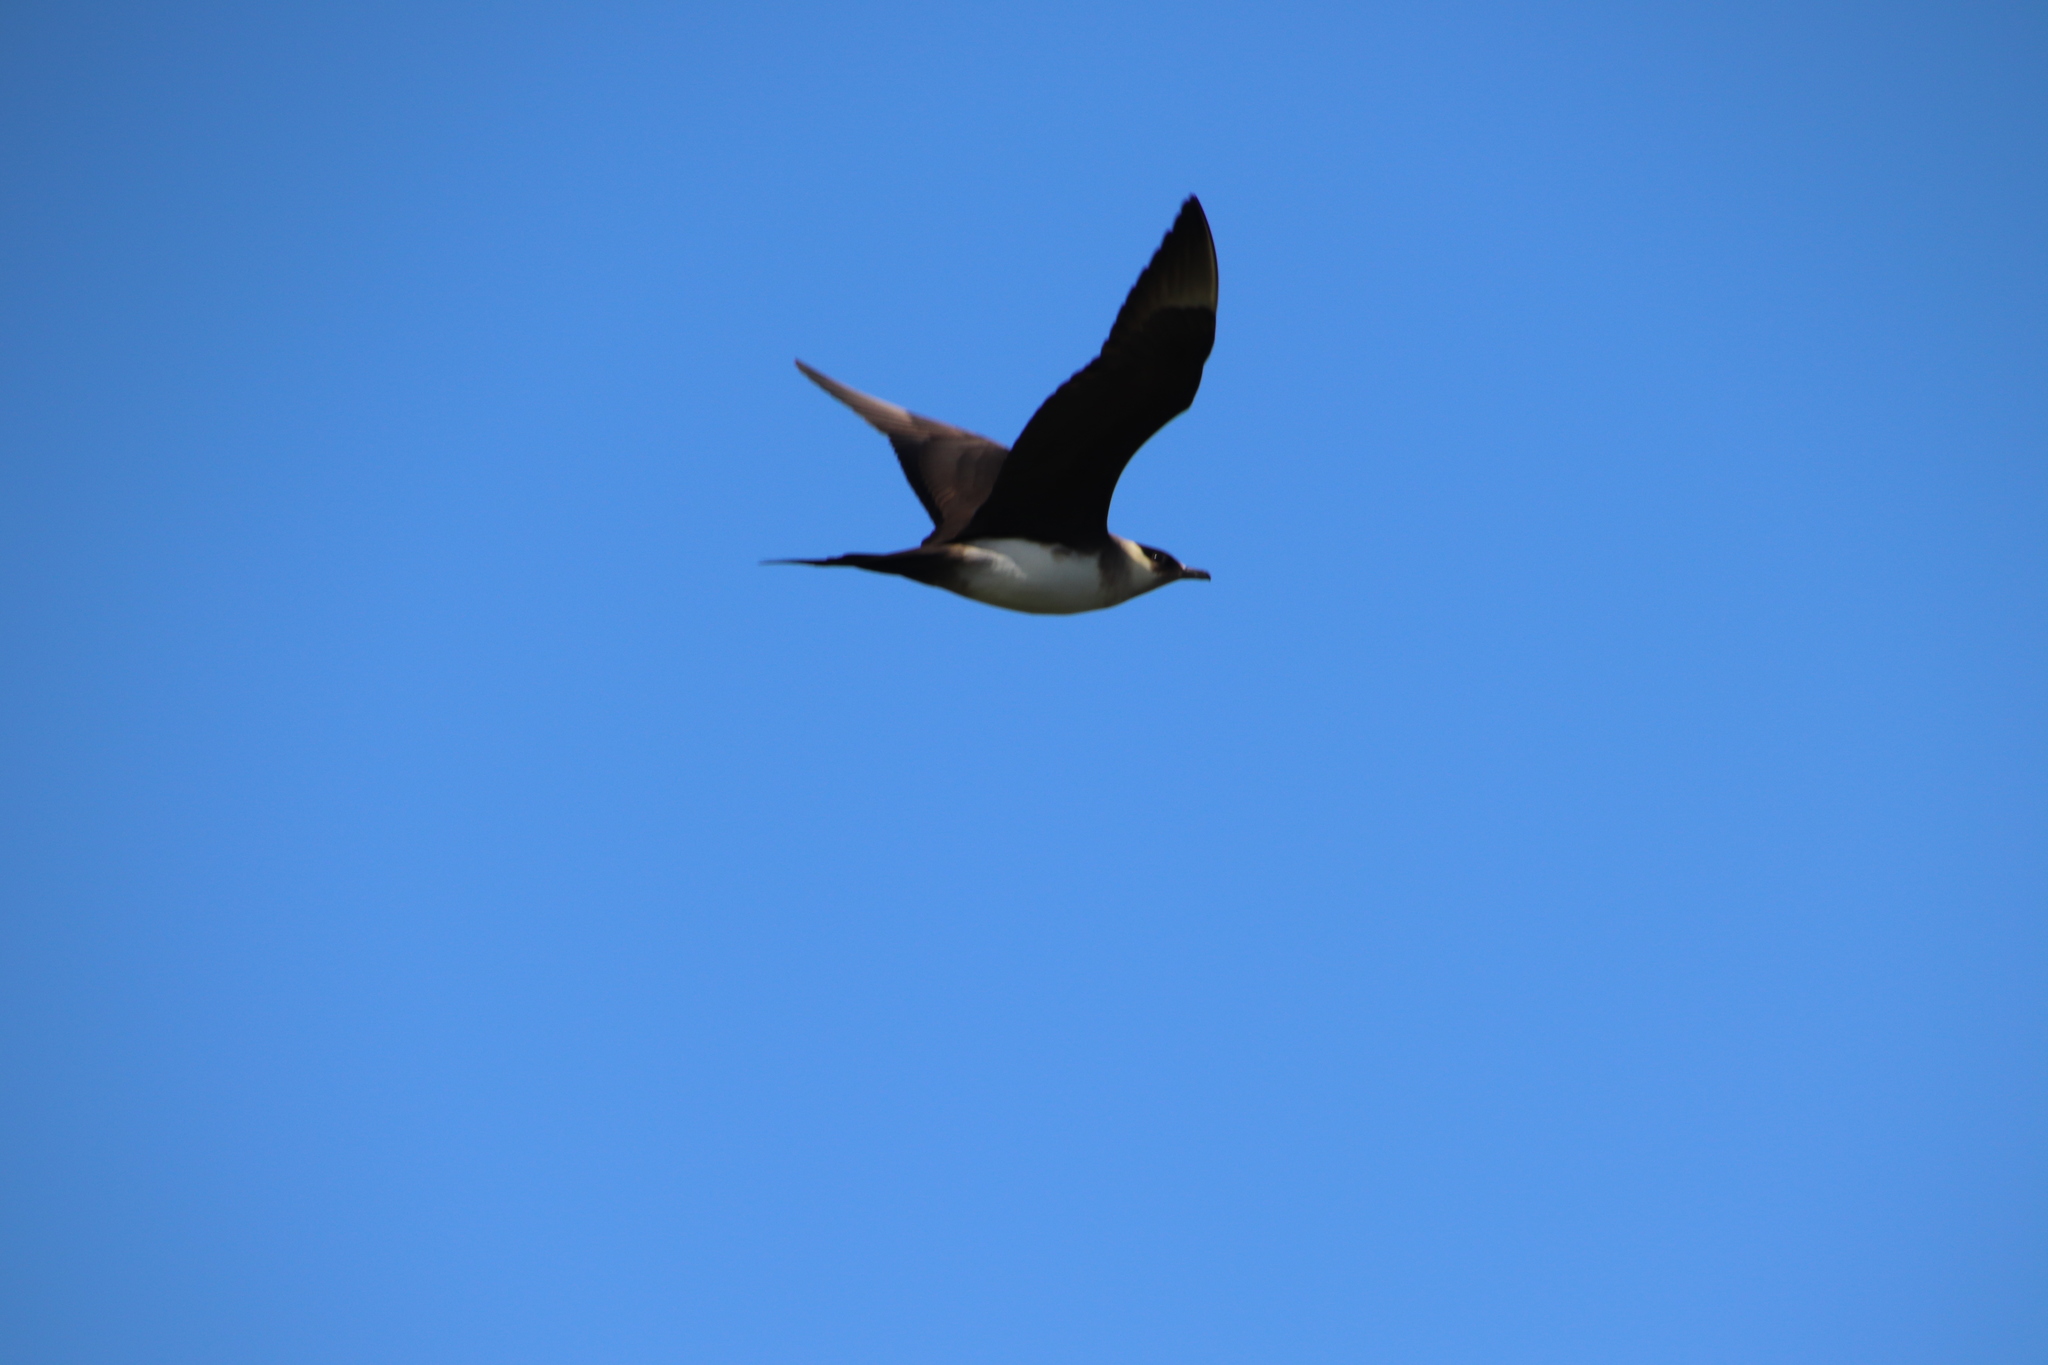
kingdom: Animalia
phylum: Chordata
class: Aves
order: Charadriiformes
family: Stercorariidae
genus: Stercorarius
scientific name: Stercorarius parasiticus
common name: Parasitic jaeger
